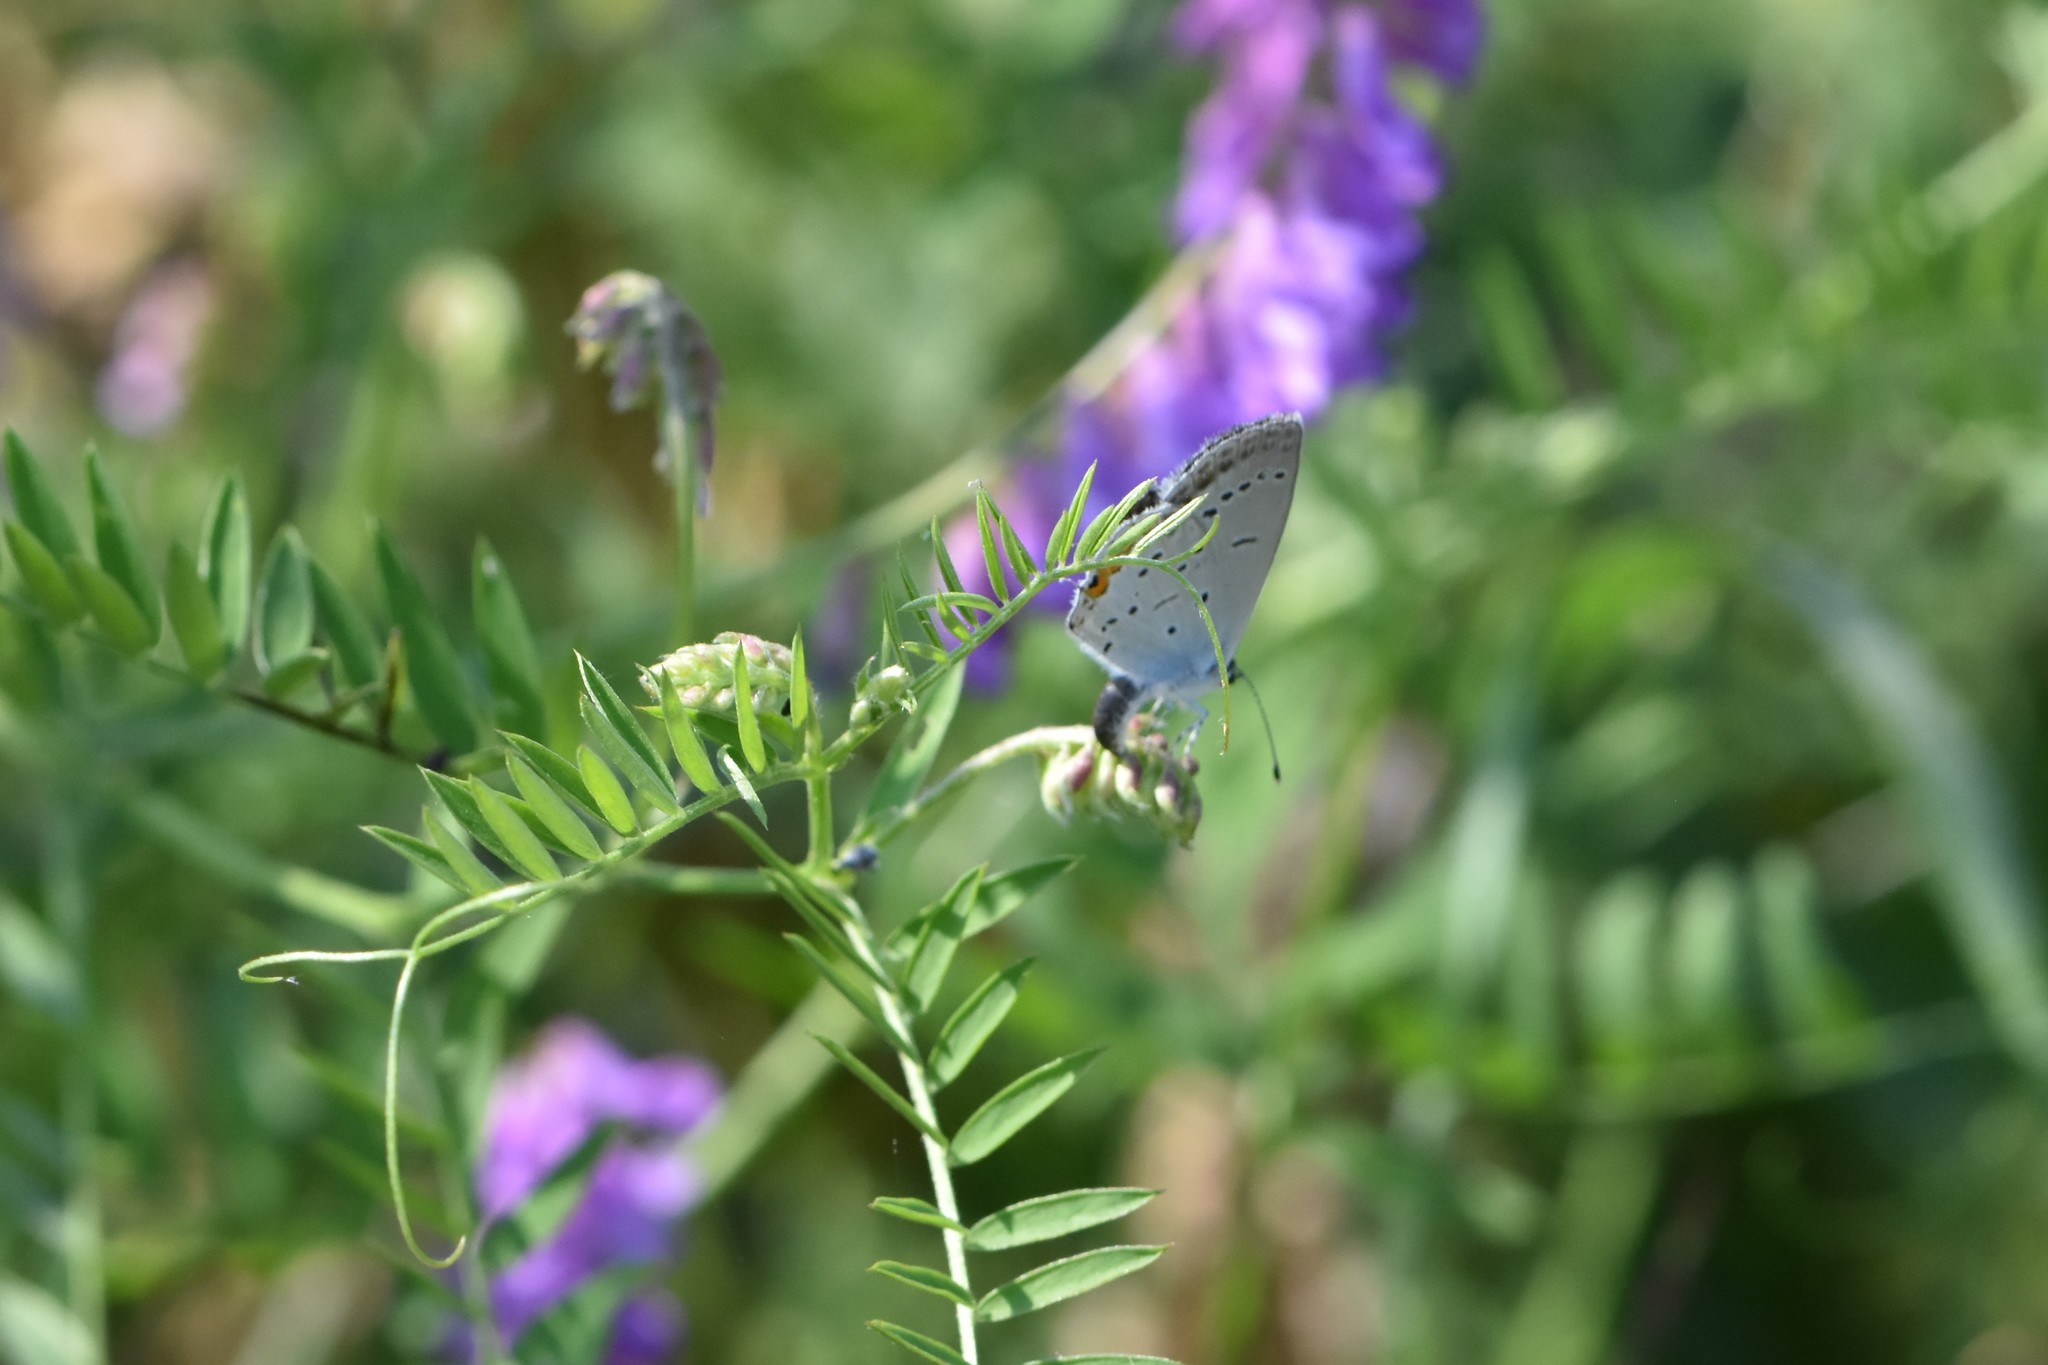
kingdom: Animalia
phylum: Arthropoda
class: Insecta
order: Lepidoptera
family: Lycaenidae
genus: Elkalyce
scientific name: Elkalyce argiades
